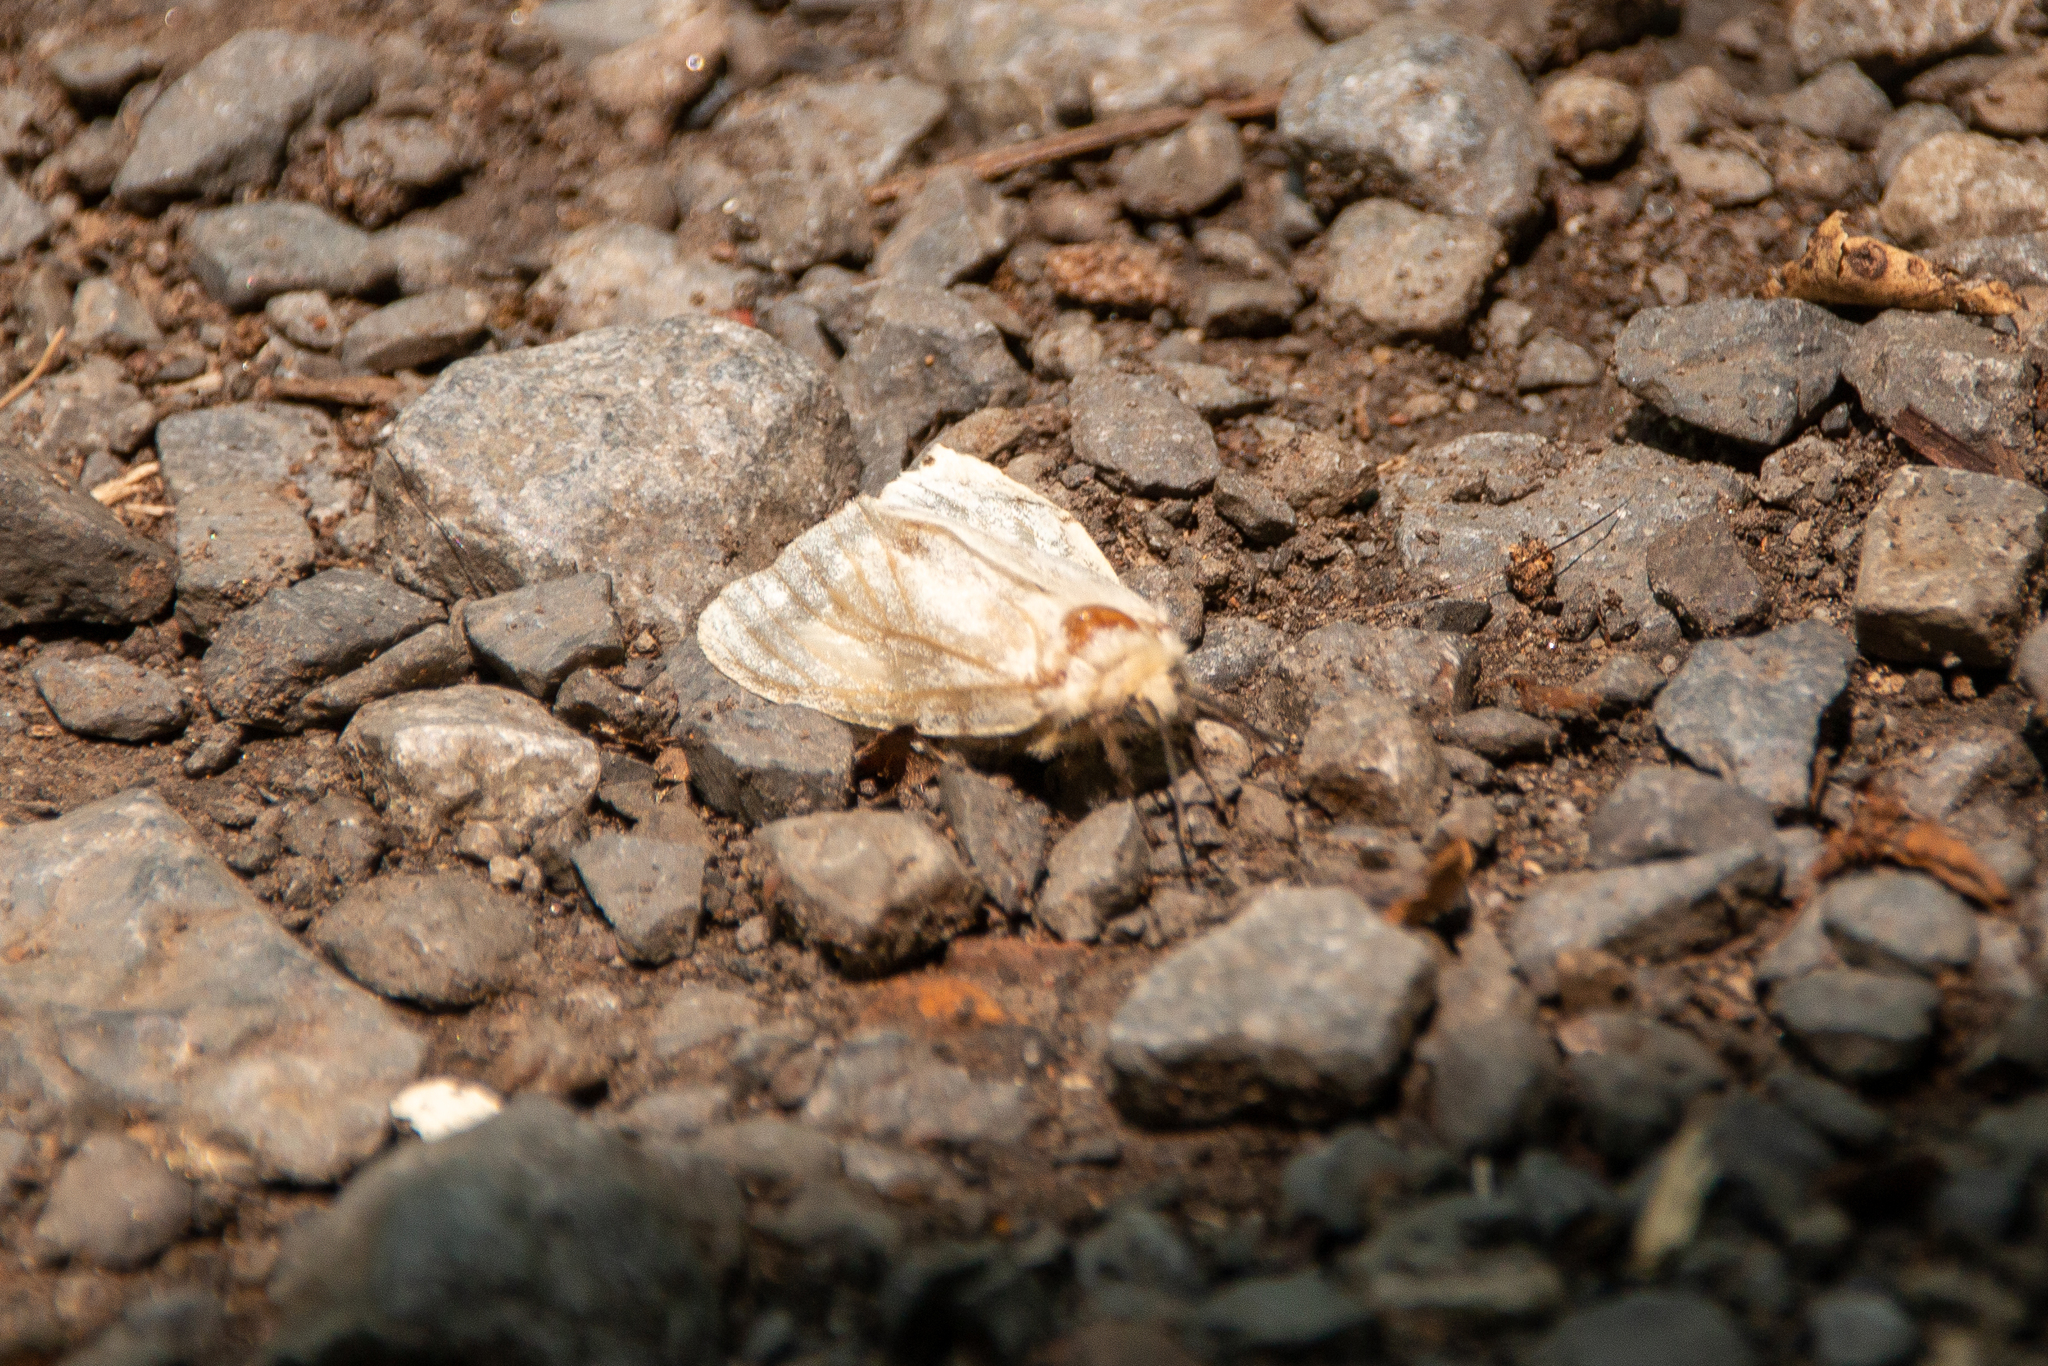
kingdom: Animalia
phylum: Arthropoda
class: Insecta
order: Lepidoptera
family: Erebidae
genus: Lymantria
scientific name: Lymantria dispar
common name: Gypsy moth
